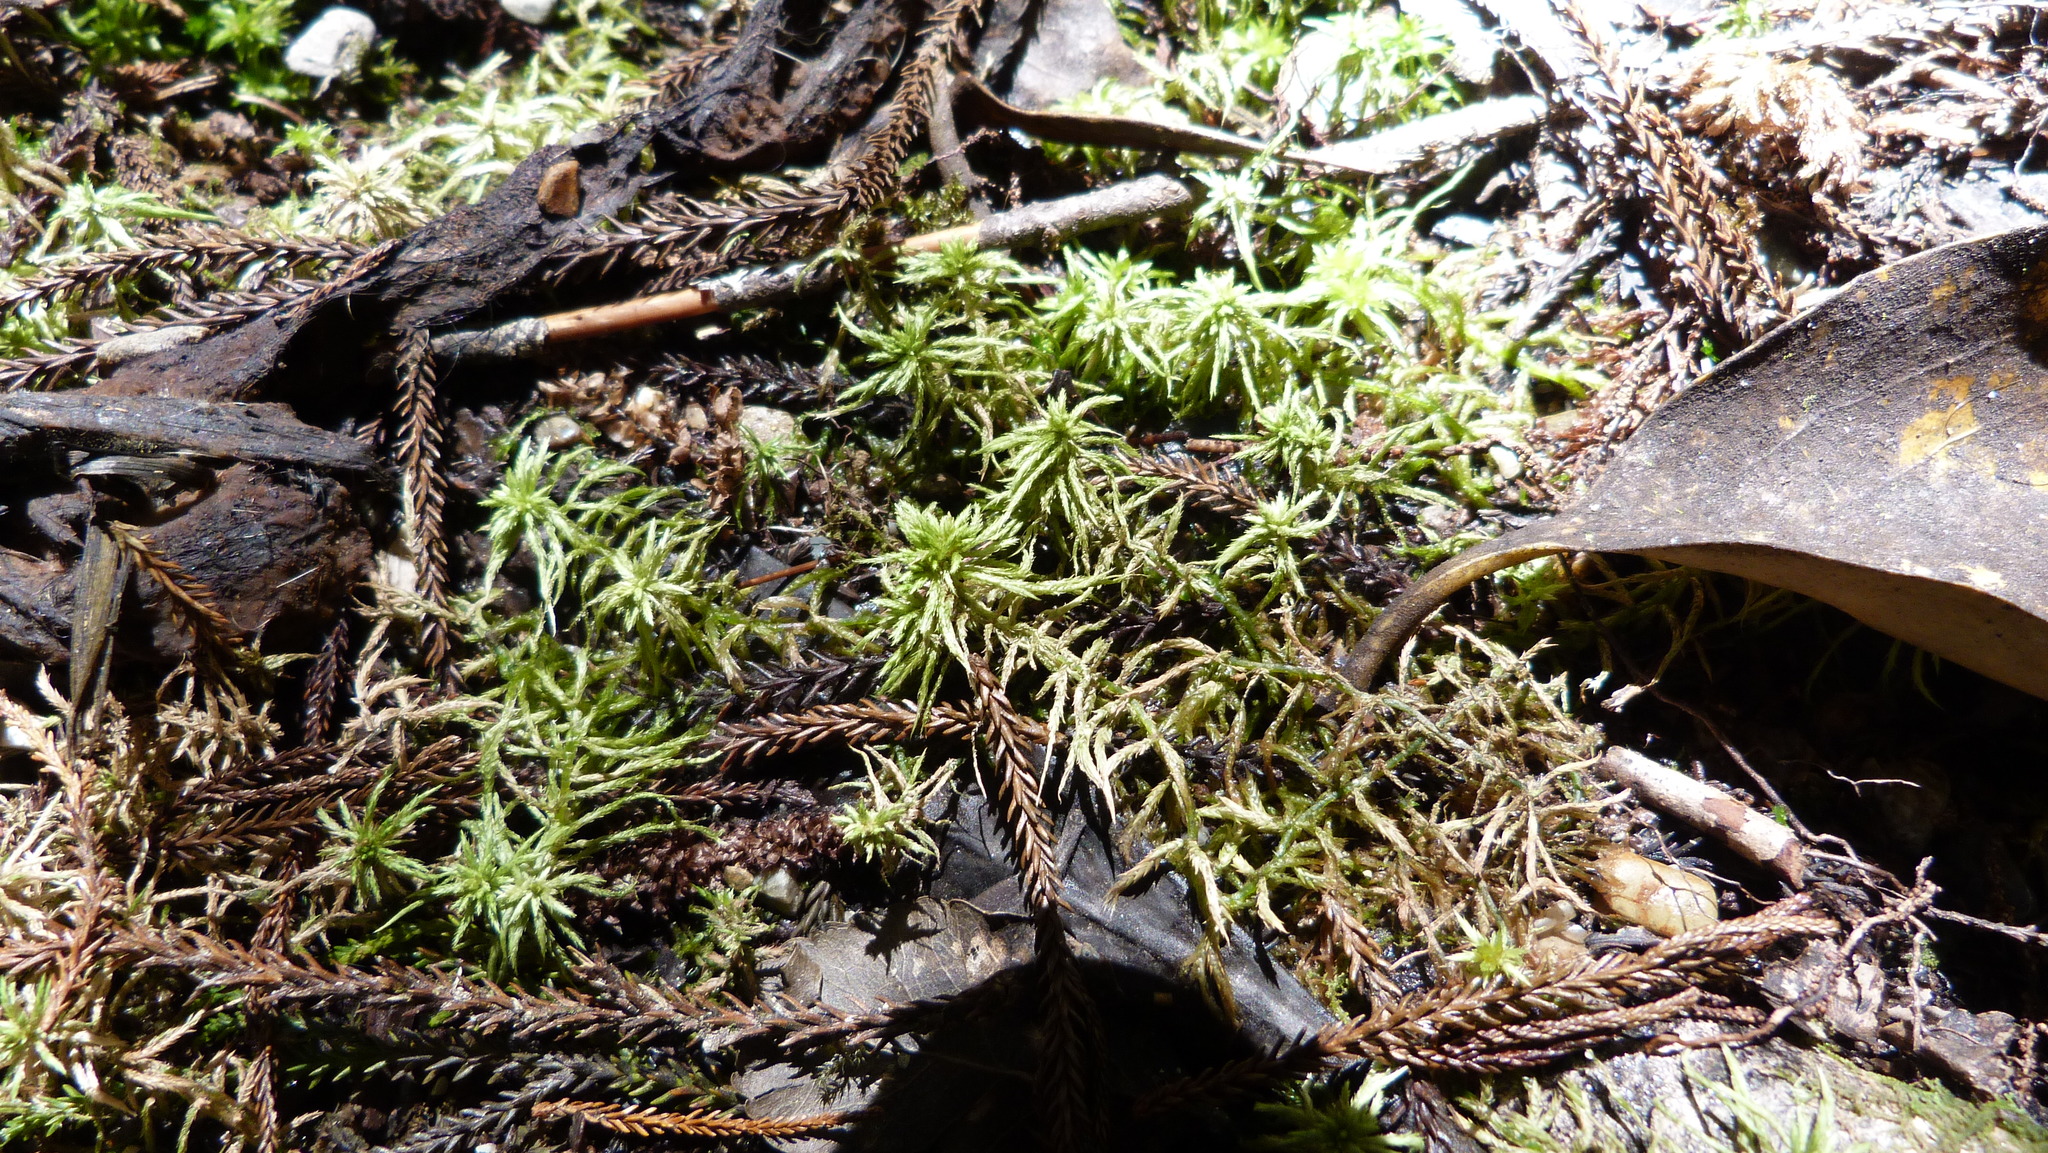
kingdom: Plantae
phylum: Bryophyta
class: Sphagnopsida
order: Sphagnales
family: Sphagnaceae
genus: Sphagnum
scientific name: Sphagnum falcatulum
